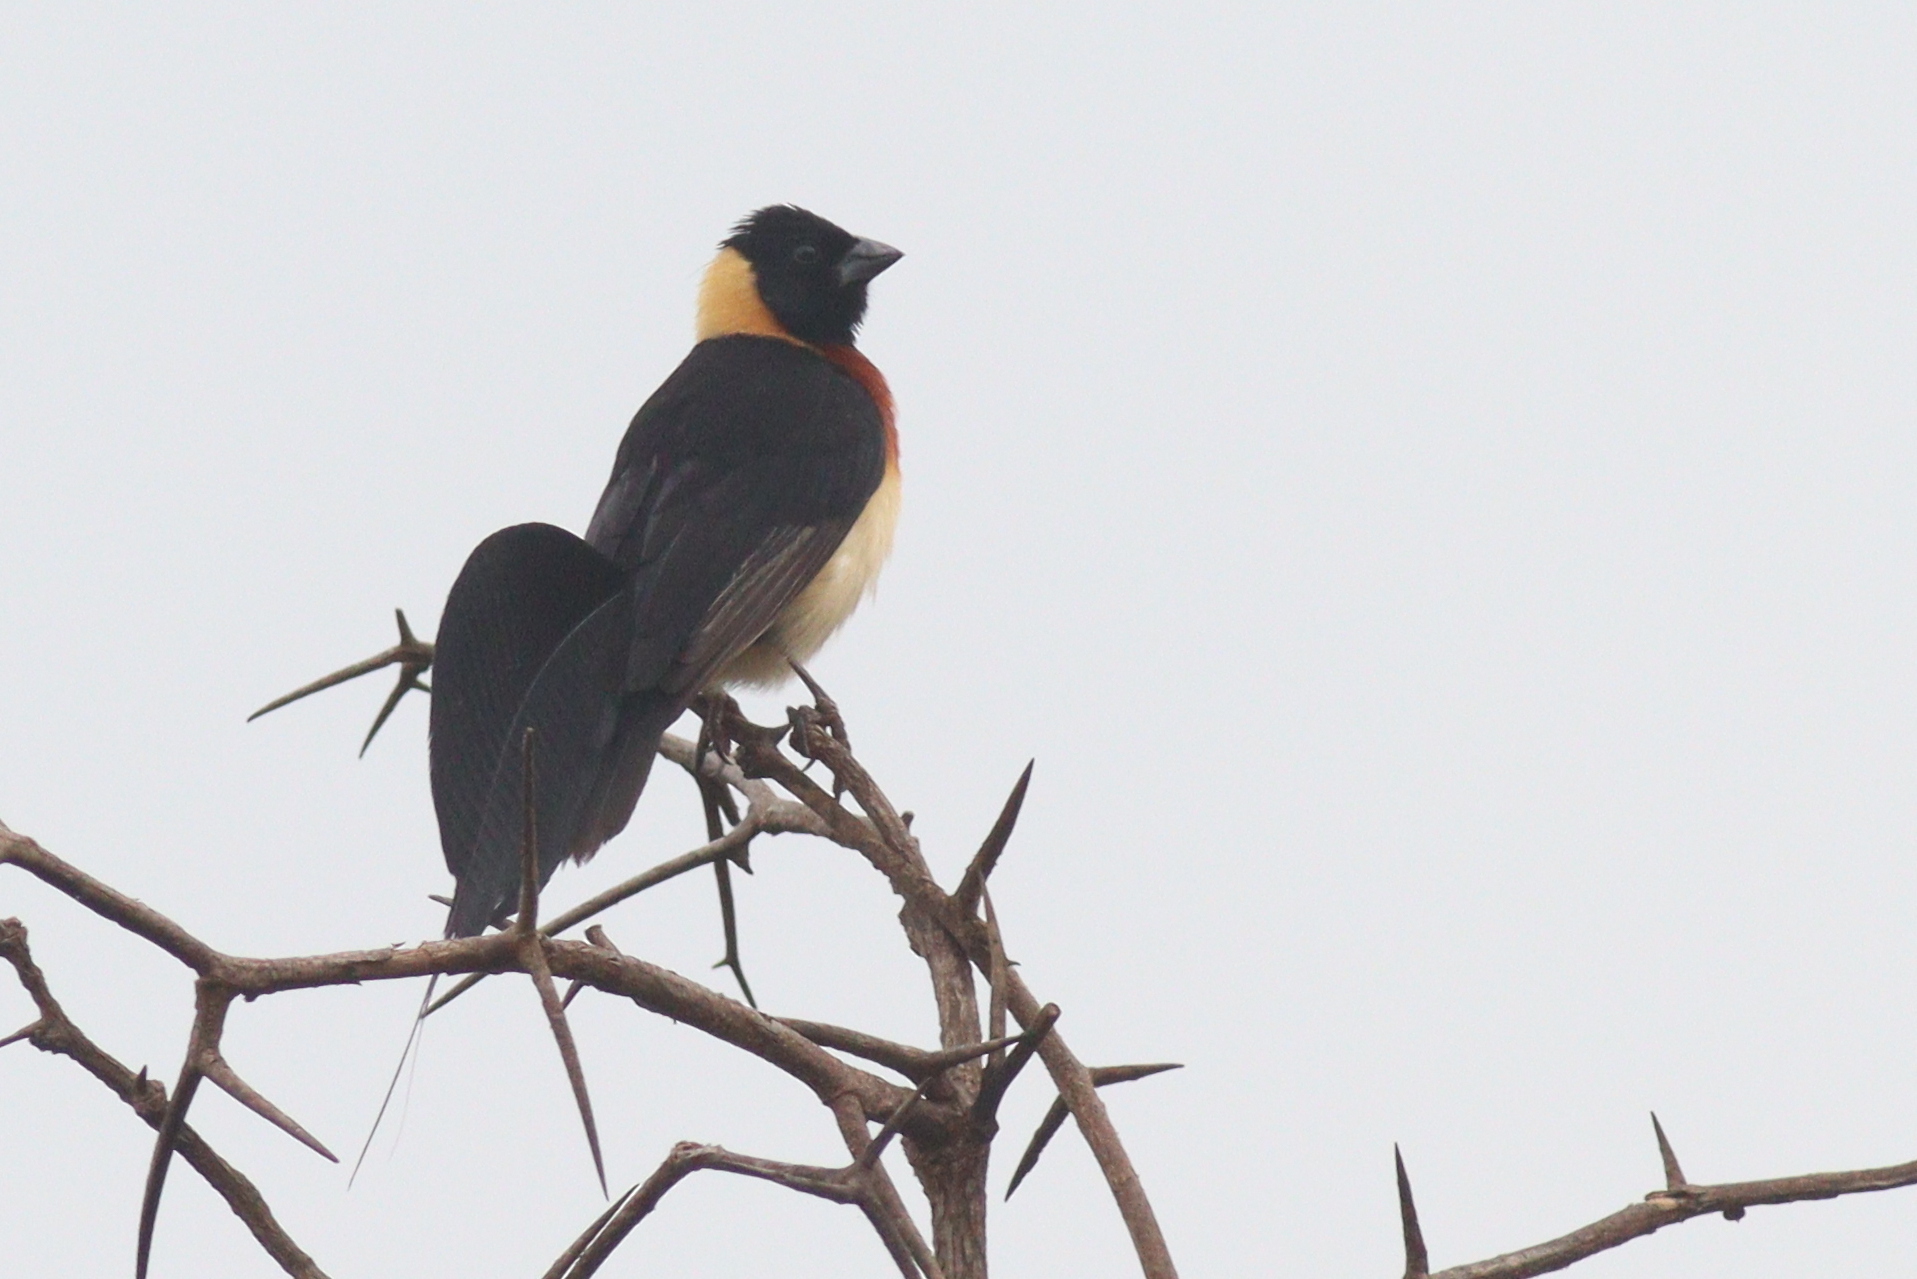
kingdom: Animalia
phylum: Chordata
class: Aves
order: Passeriformes
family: Viduidae
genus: Vidua
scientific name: Vidua paradisaea
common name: Long-tailed paradise whydah
